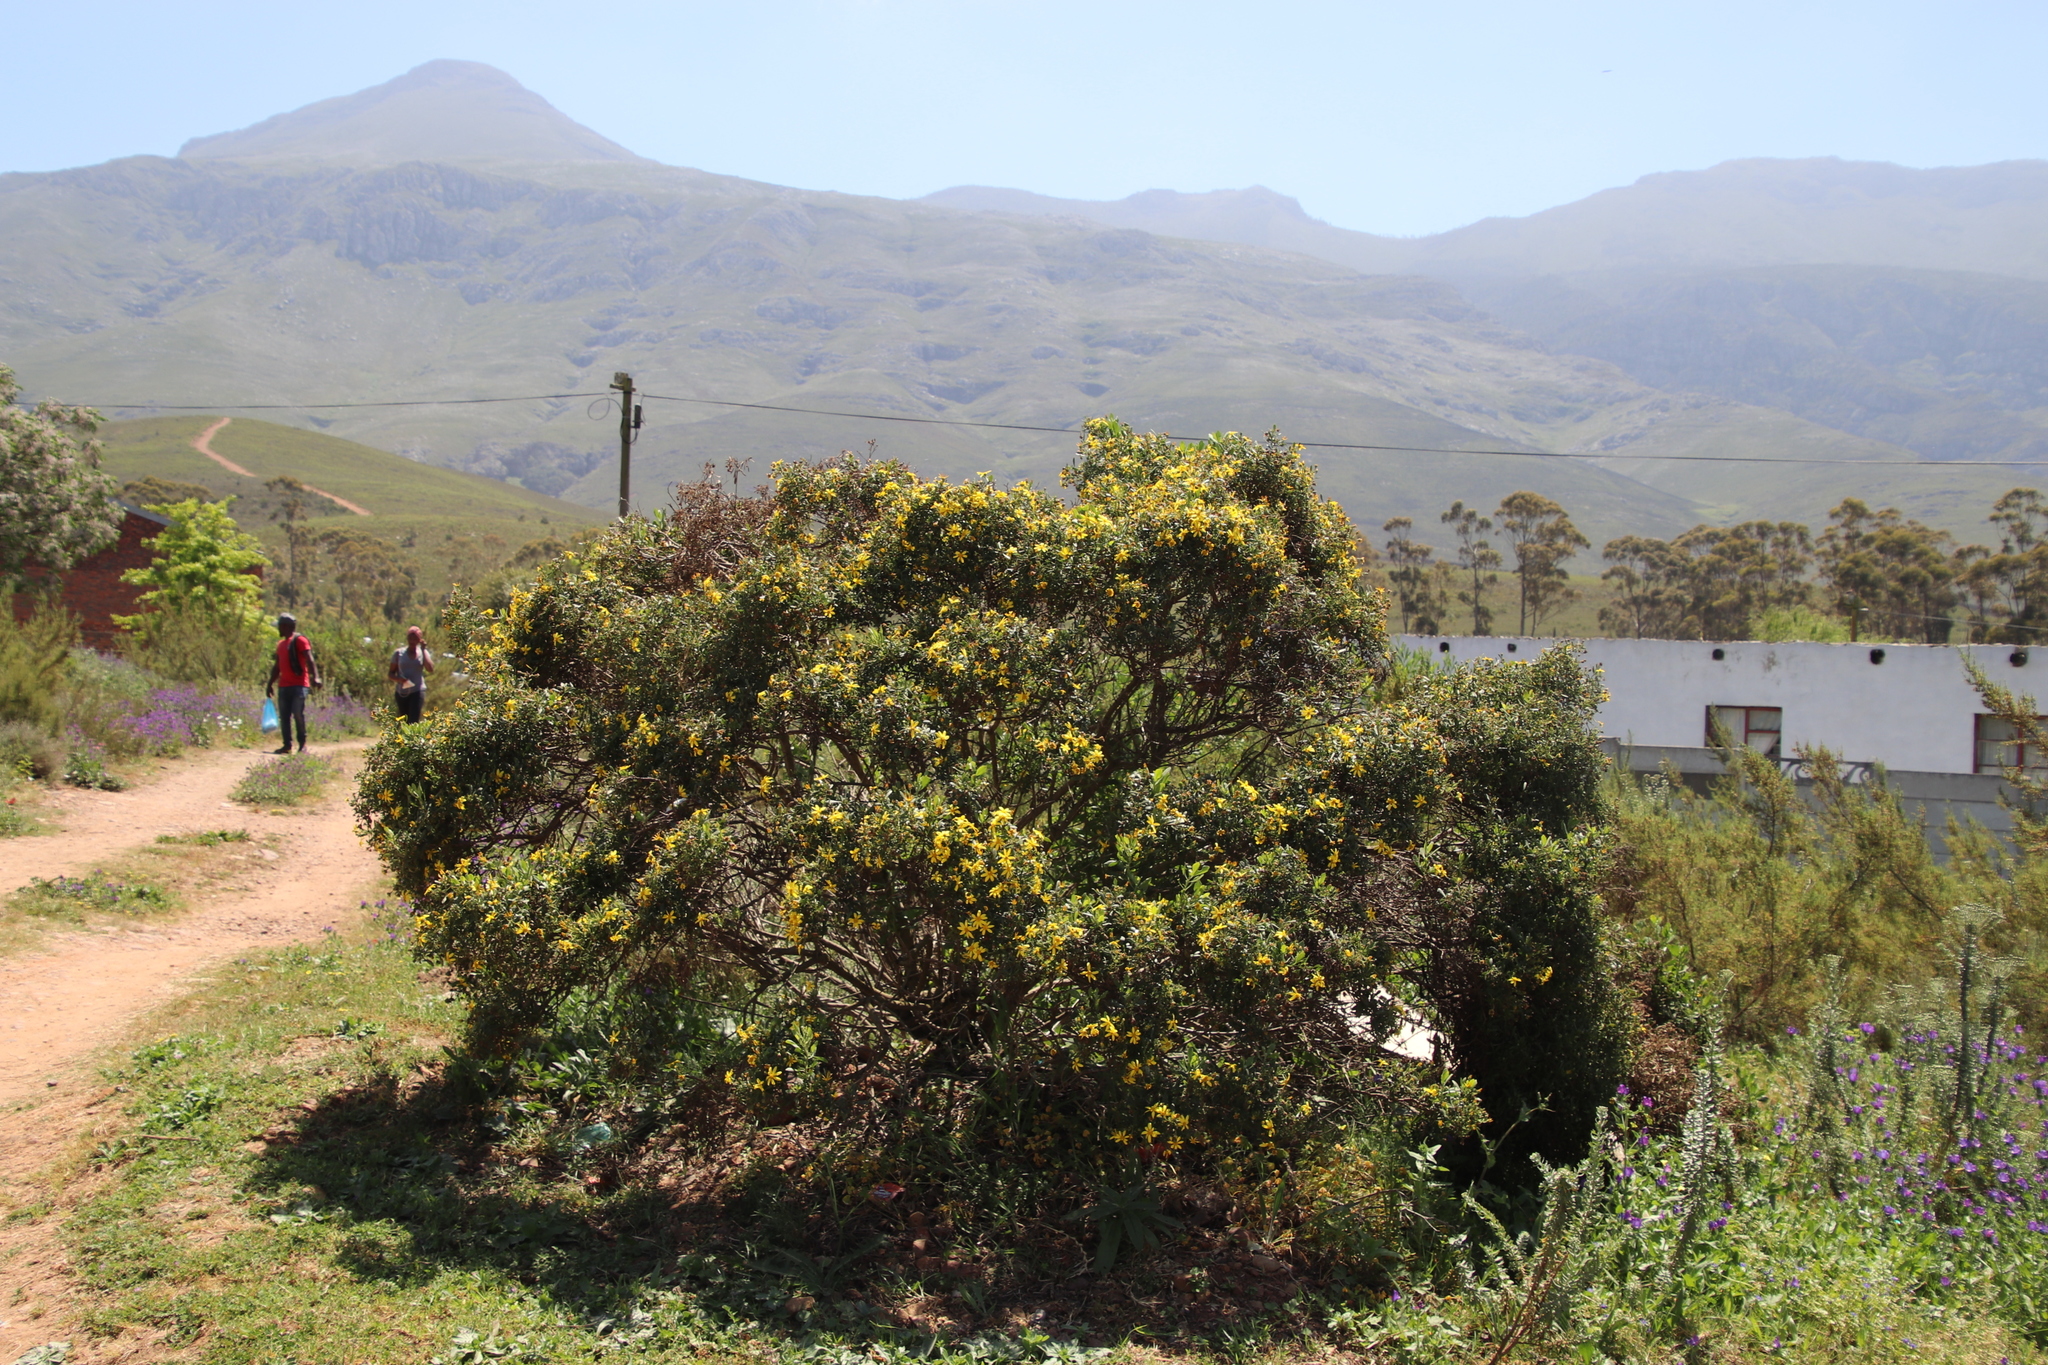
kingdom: Plantae
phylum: Tracheophyta
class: Magnoliopsida
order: Asterales
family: Asteraceae
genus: Osteospermum
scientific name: Osteospermum moniliferum
